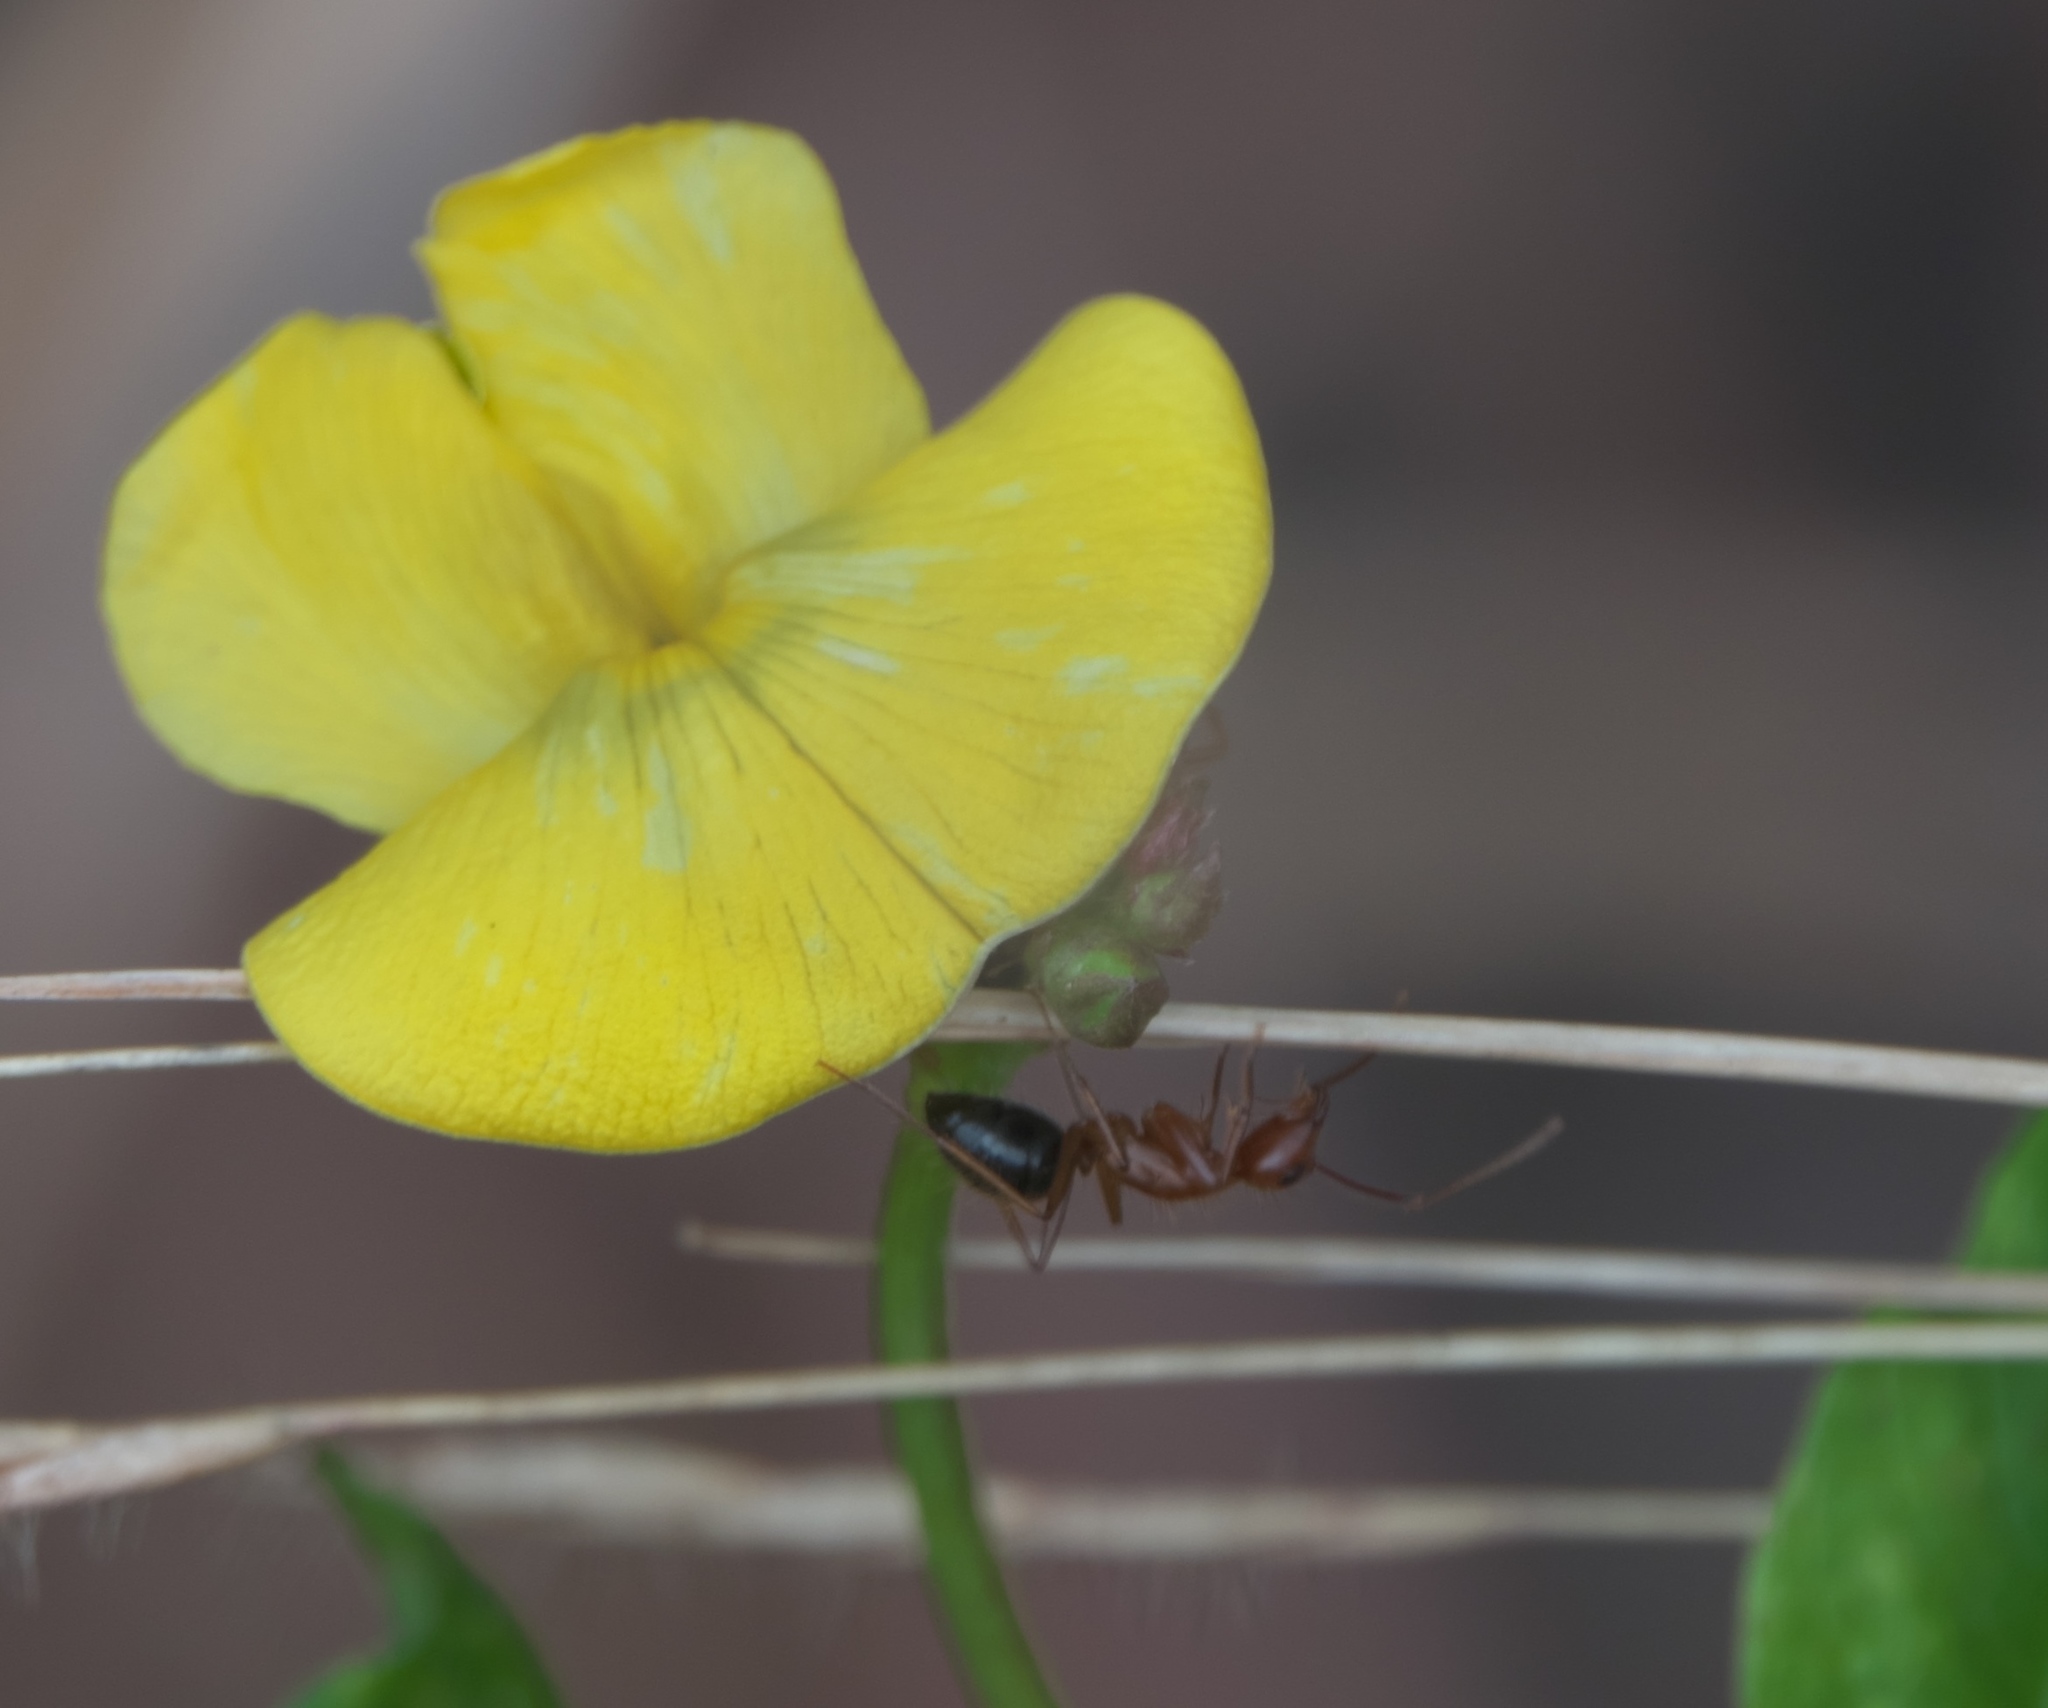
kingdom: Animalia
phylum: Arthropoda
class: Insecta
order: Hymenoptera
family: Formicidae
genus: Camponotus
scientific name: Camponotus floridanus
